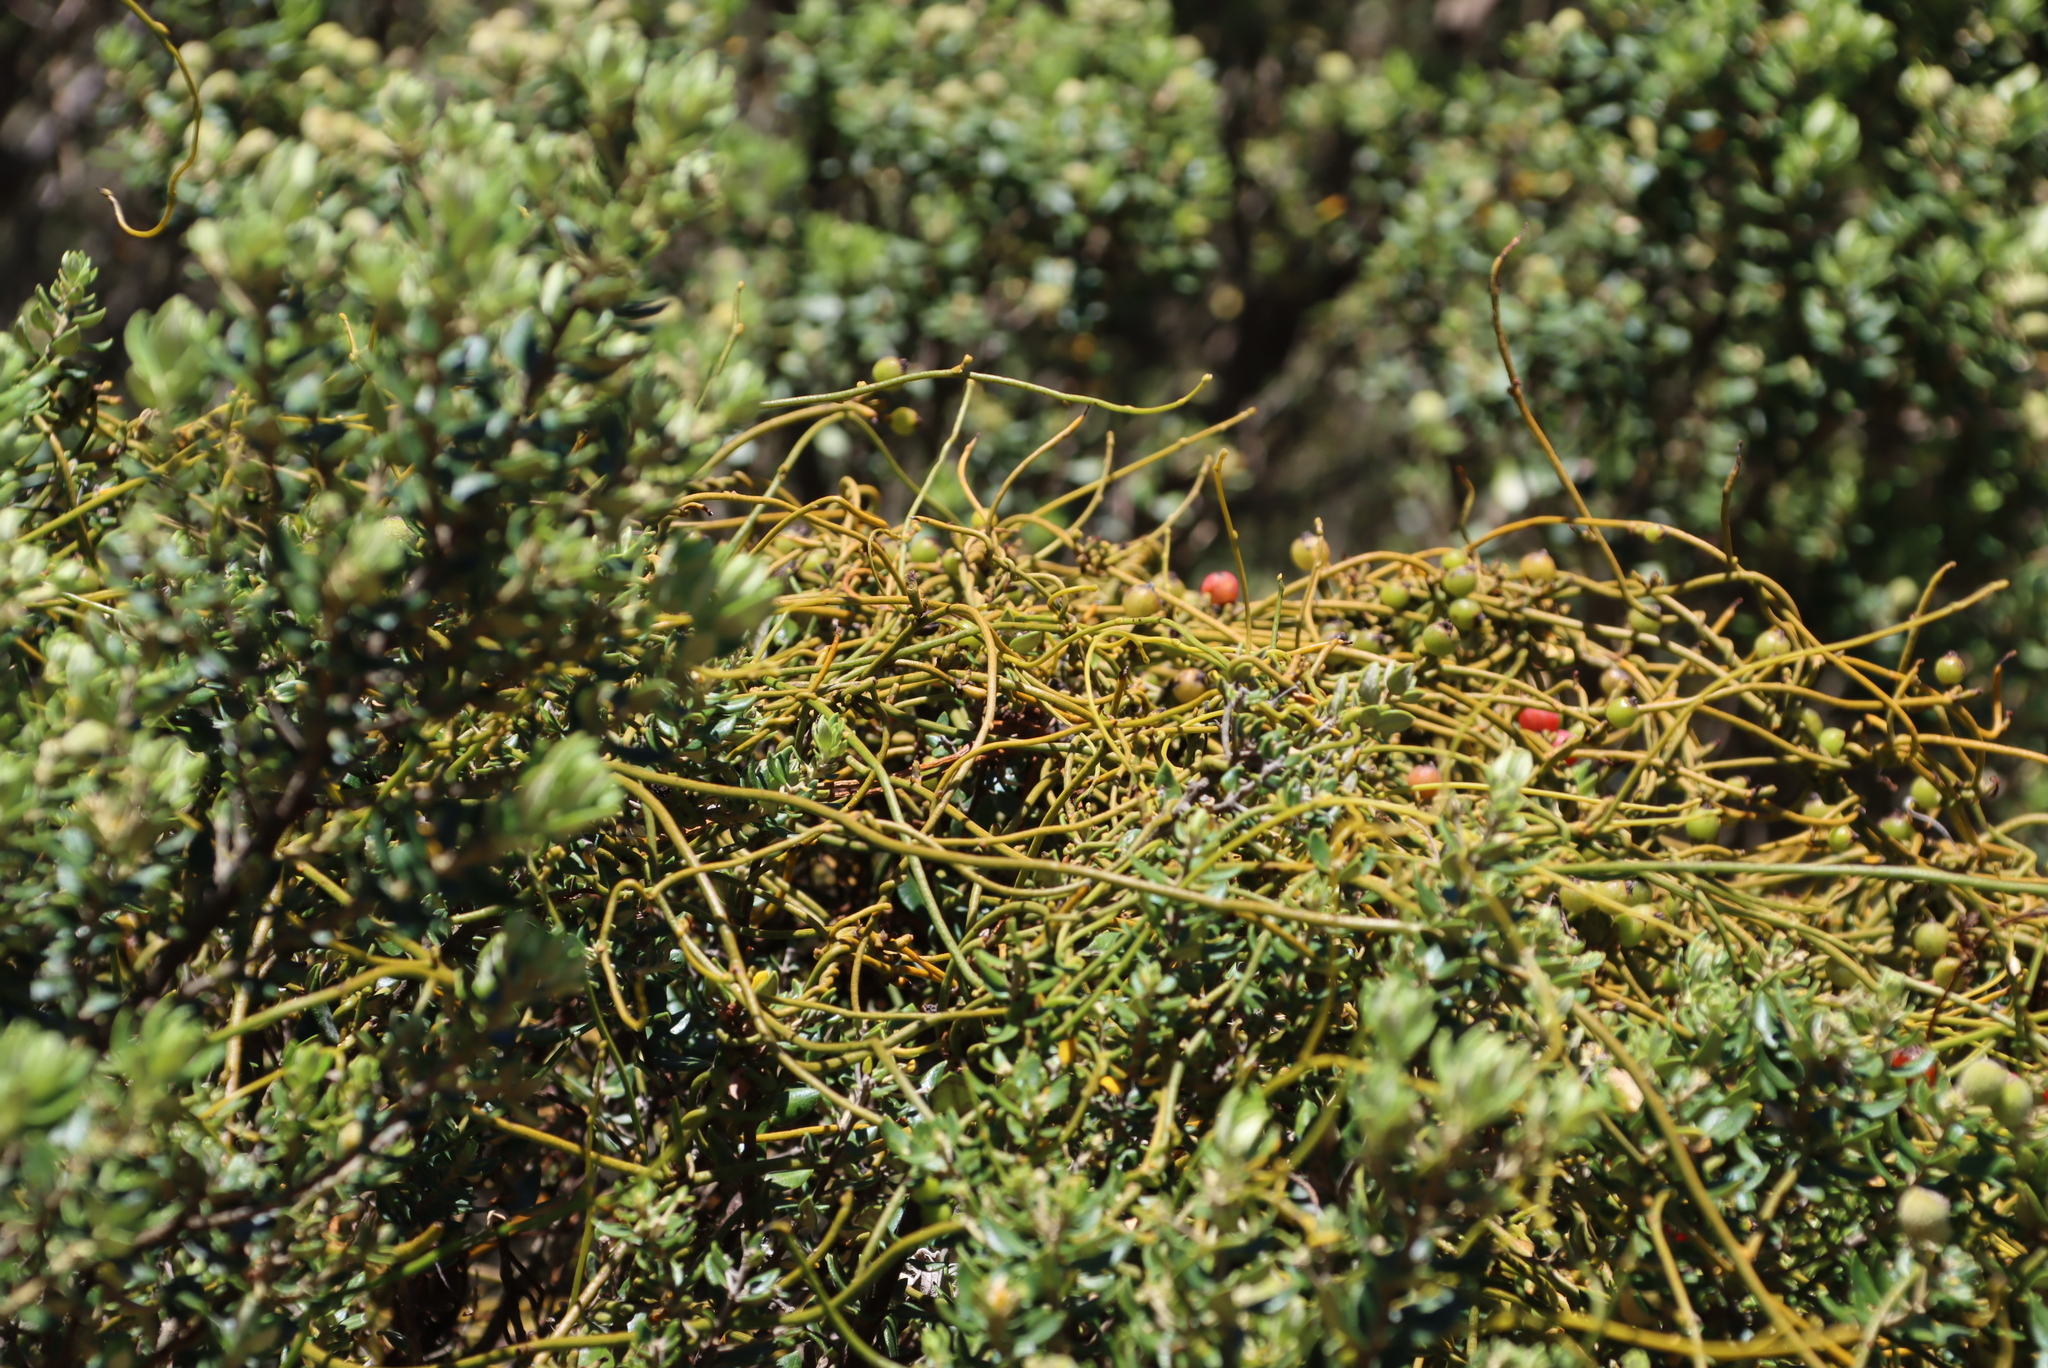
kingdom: Plantae
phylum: Tracheophyta
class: Magnoliopsida
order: Laurales
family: Lauraceae
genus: Cassytha
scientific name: Cassytha ciliolata
